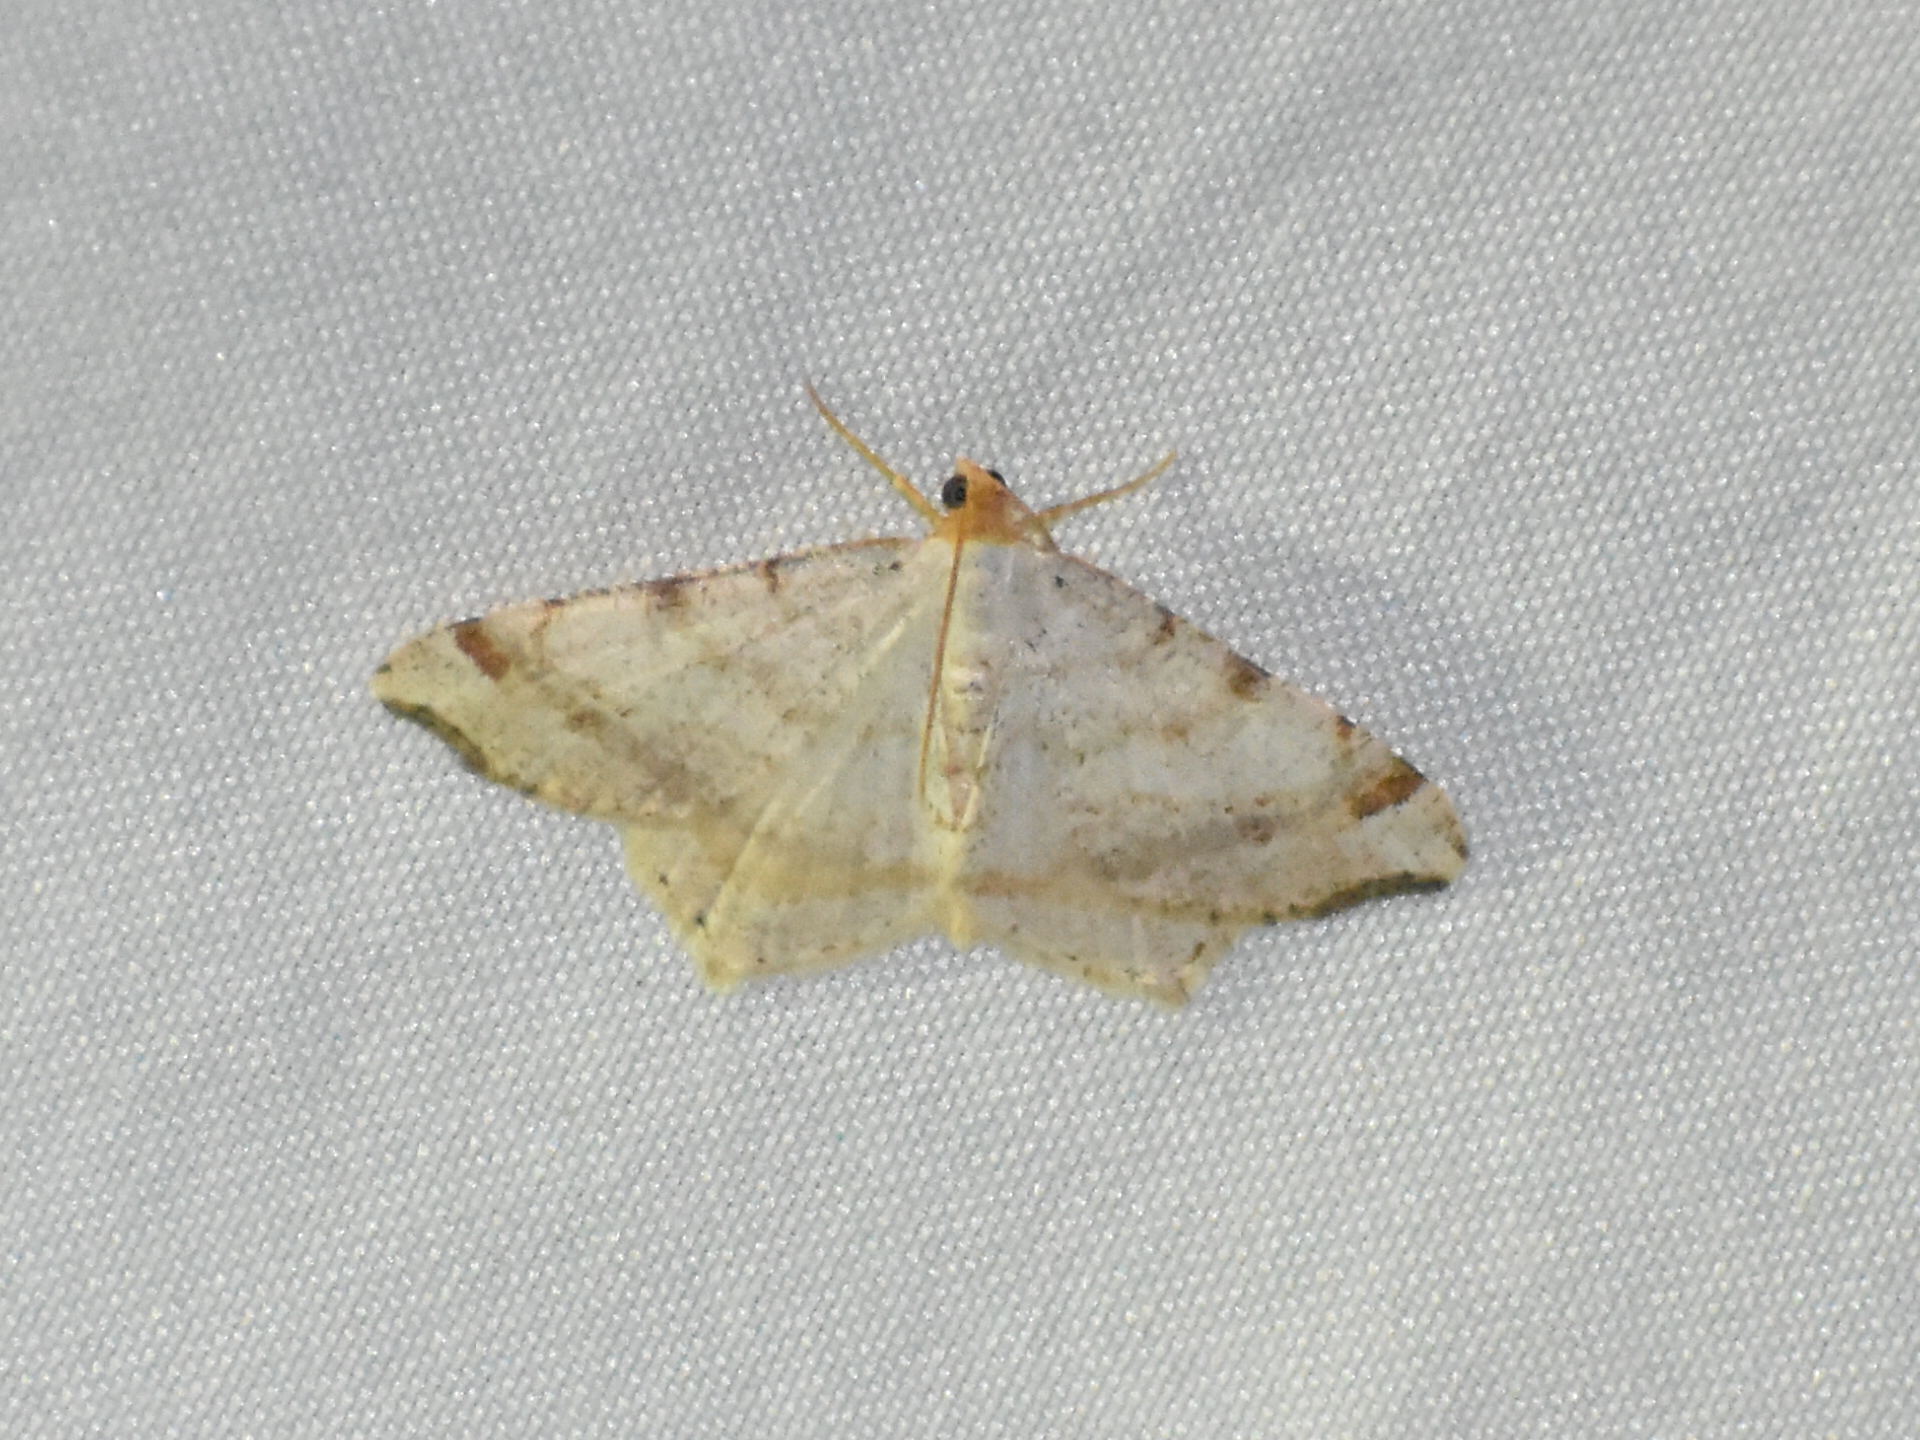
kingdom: Animalia
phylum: Arthropoda
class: Insecta
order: Lepidoptera
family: Geometridae
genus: Macaria
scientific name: Macaria bisignata
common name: Red-headed inchworm
